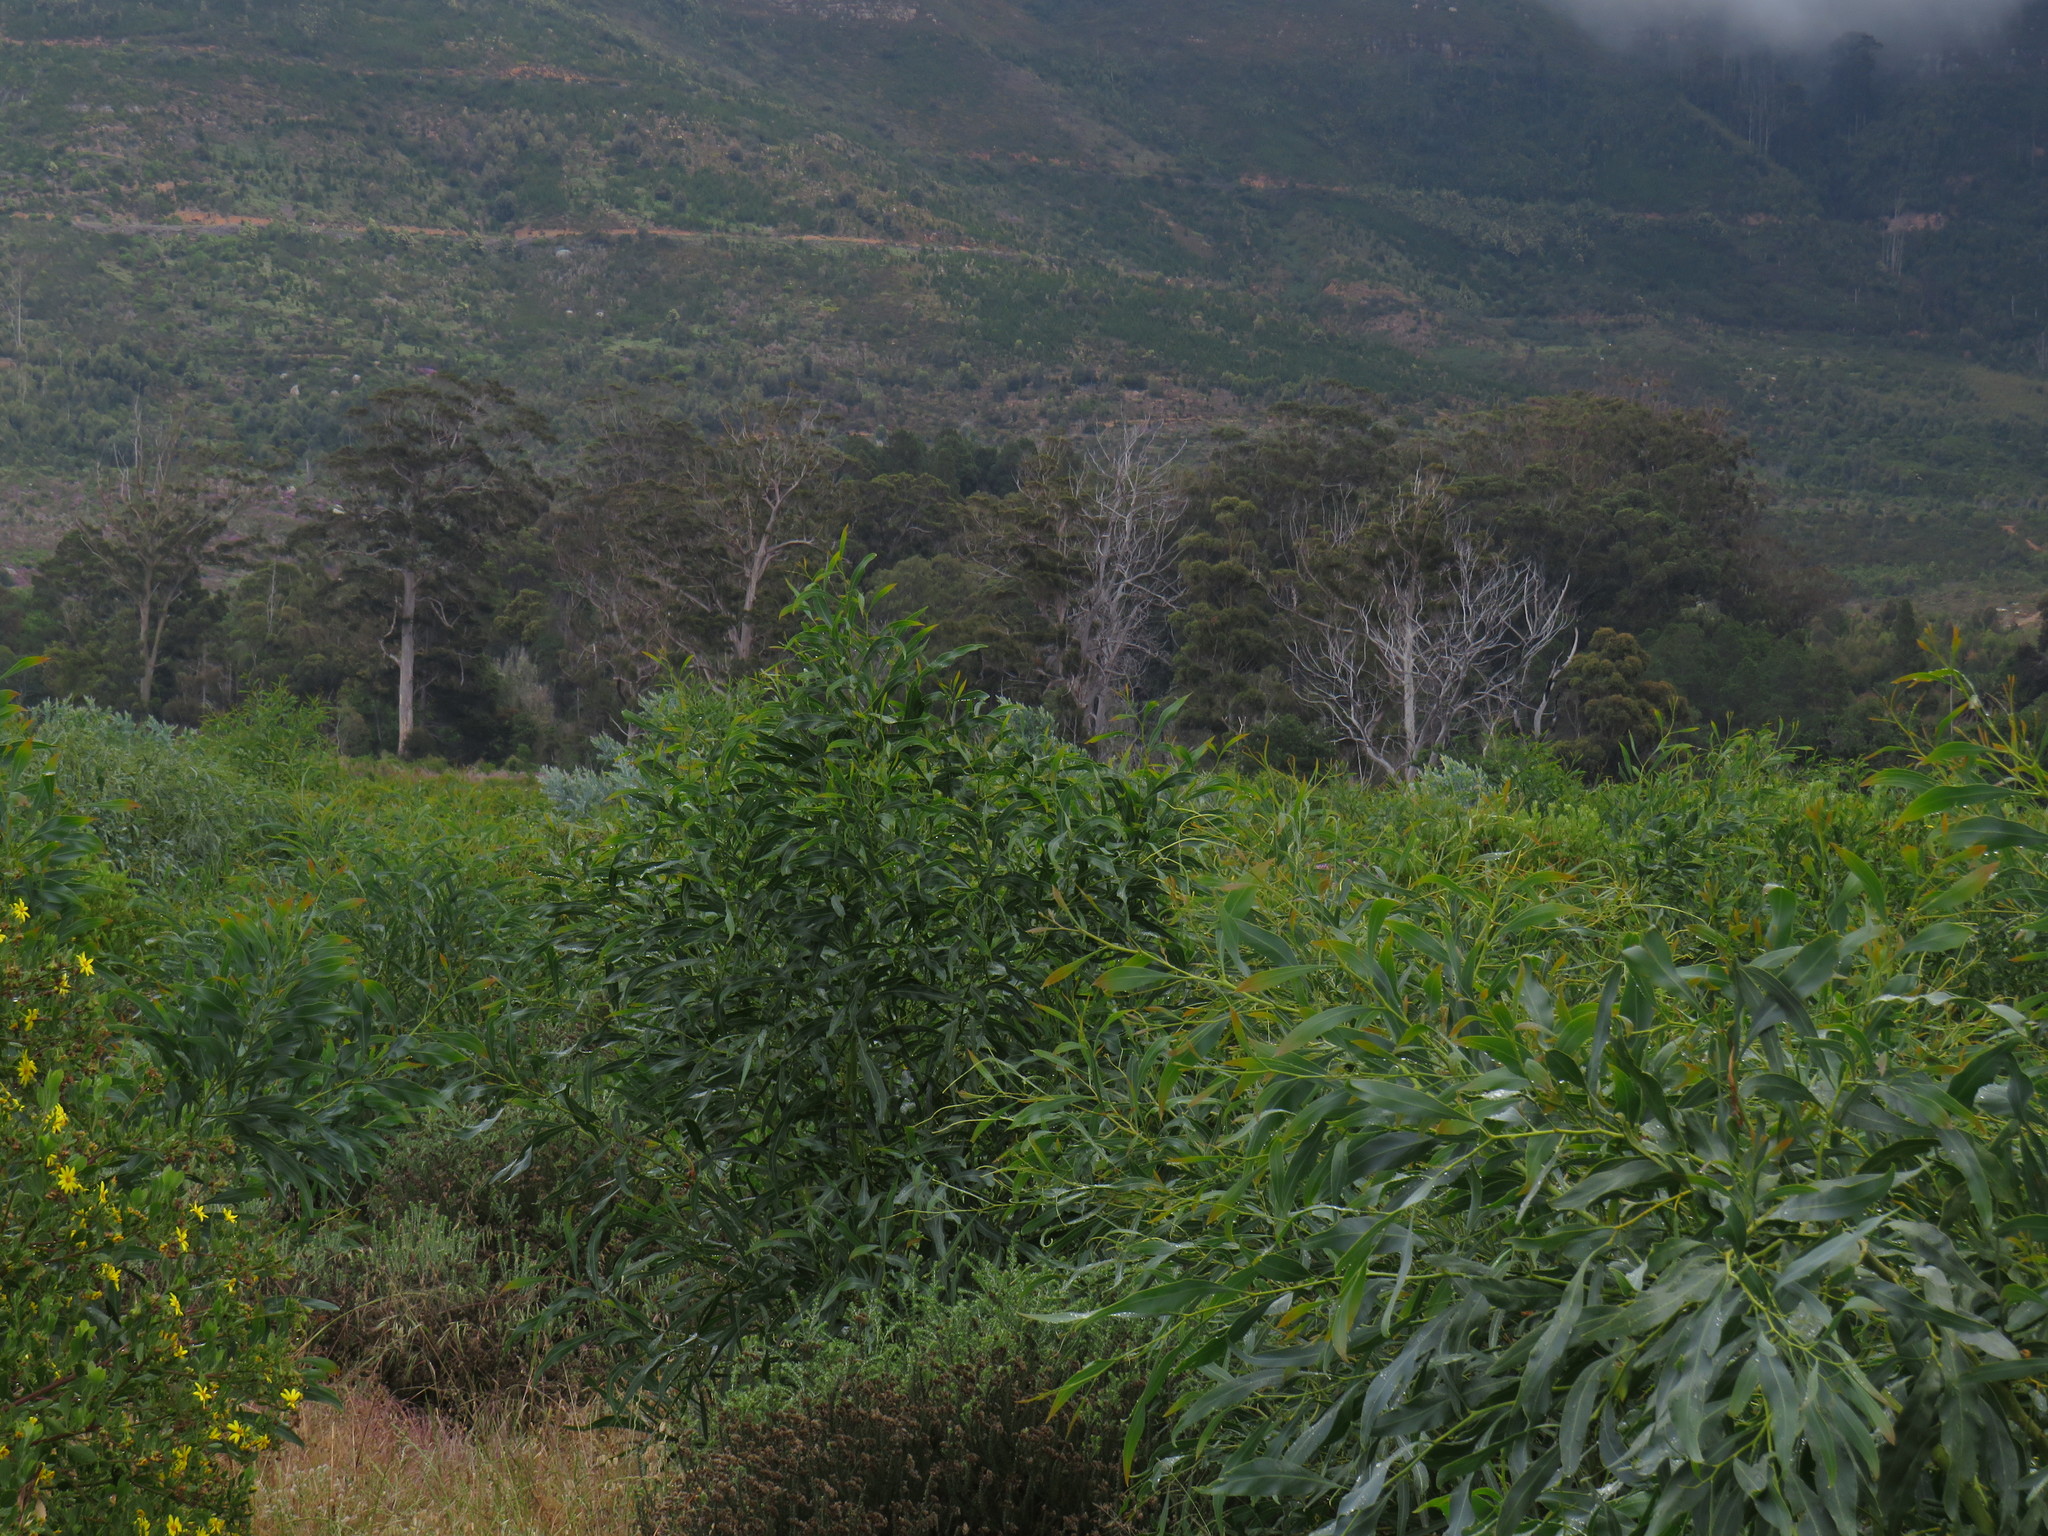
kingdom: Plantae
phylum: Tracheophyta
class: Magnoliopsida
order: Fabales
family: Fabaceae
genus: Acacia
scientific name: Acacia podalyriifolia
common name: Pearl wattle
